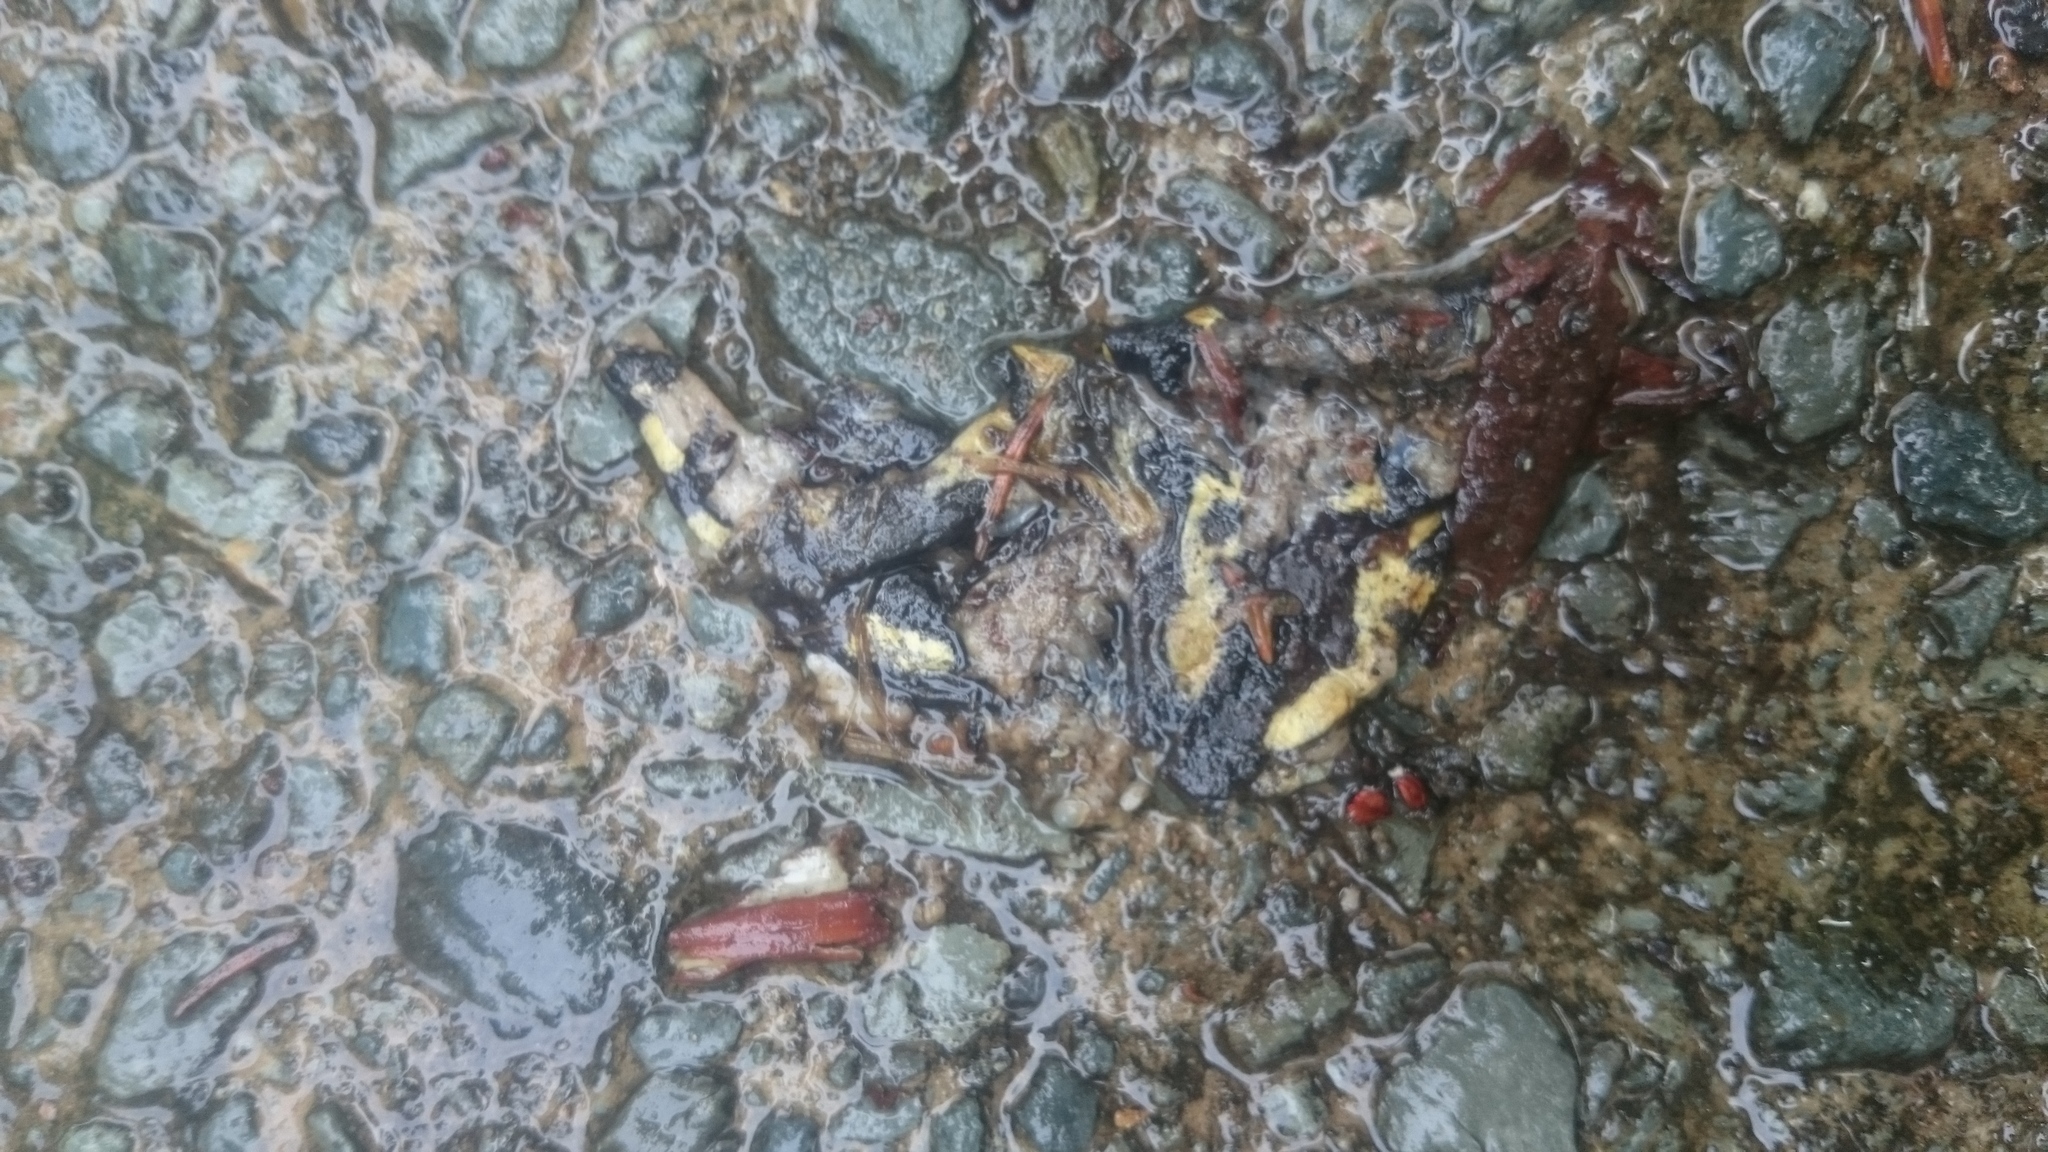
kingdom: Animalia
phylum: Chordata
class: Amphibia
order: Caudata
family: Salamandridae
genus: Salamandra
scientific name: Salamandra salamandra
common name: Fire salamander
